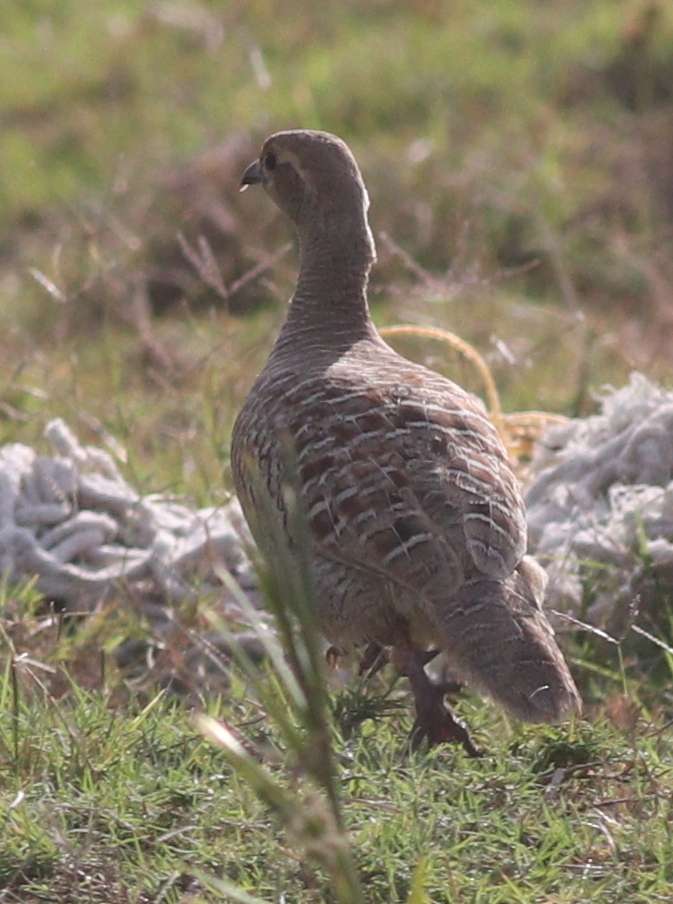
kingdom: Animalia
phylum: Chordata
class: Aves
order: Galliformes
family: Phasianidae
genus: Ortygornis
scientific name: Ortygornis pondicerianus
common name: Grey francolin
